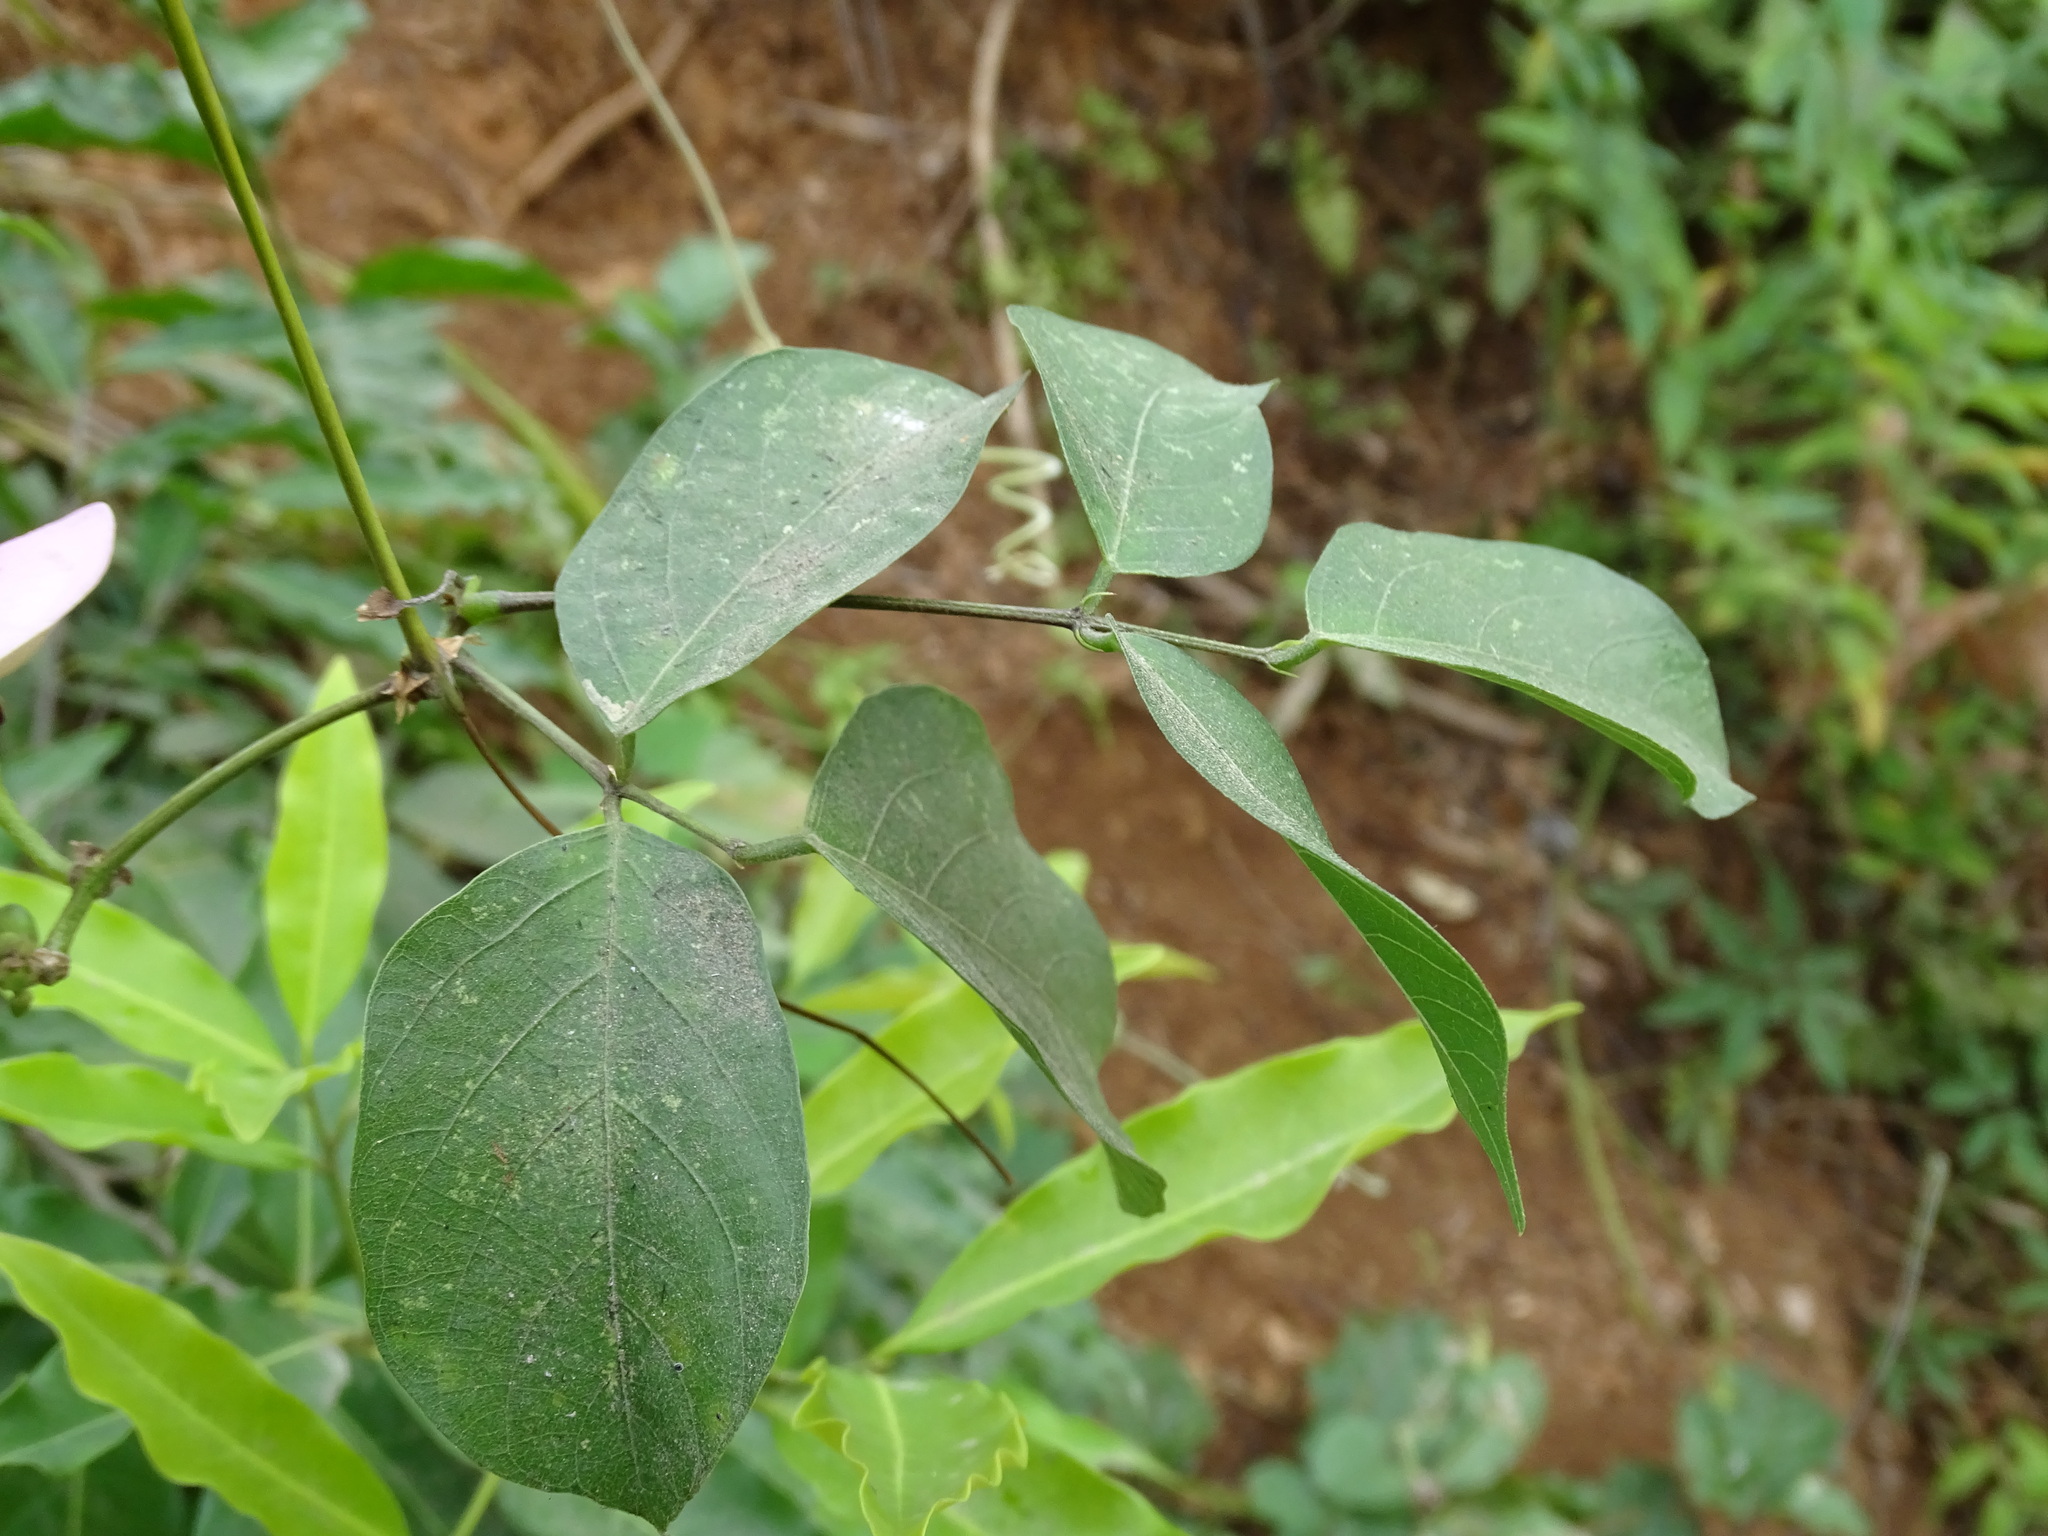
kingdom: Plantae
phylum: Tracheophyta
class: Magnoliopsida
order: Fabales
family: Fabaceae
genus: Centrosema
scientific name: Centrosema plumieri
